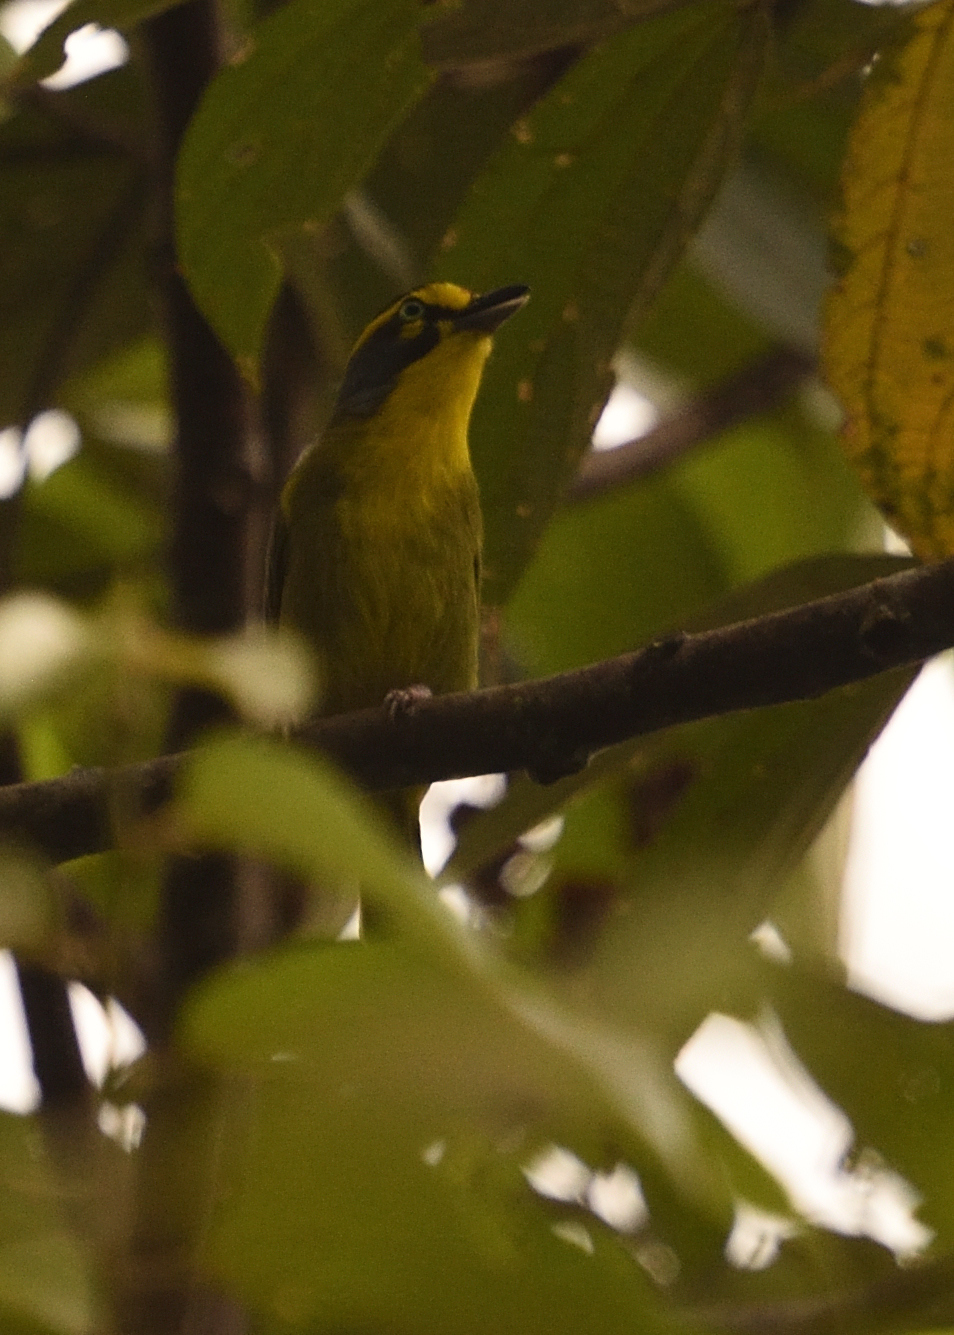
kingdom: Animalia
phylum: Chordata
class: Aves
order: Passeriformes
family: Vireonidae
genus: Vireolanius
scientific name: Vireolanius leucotis
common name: Slaty-capped shrike-vireo
